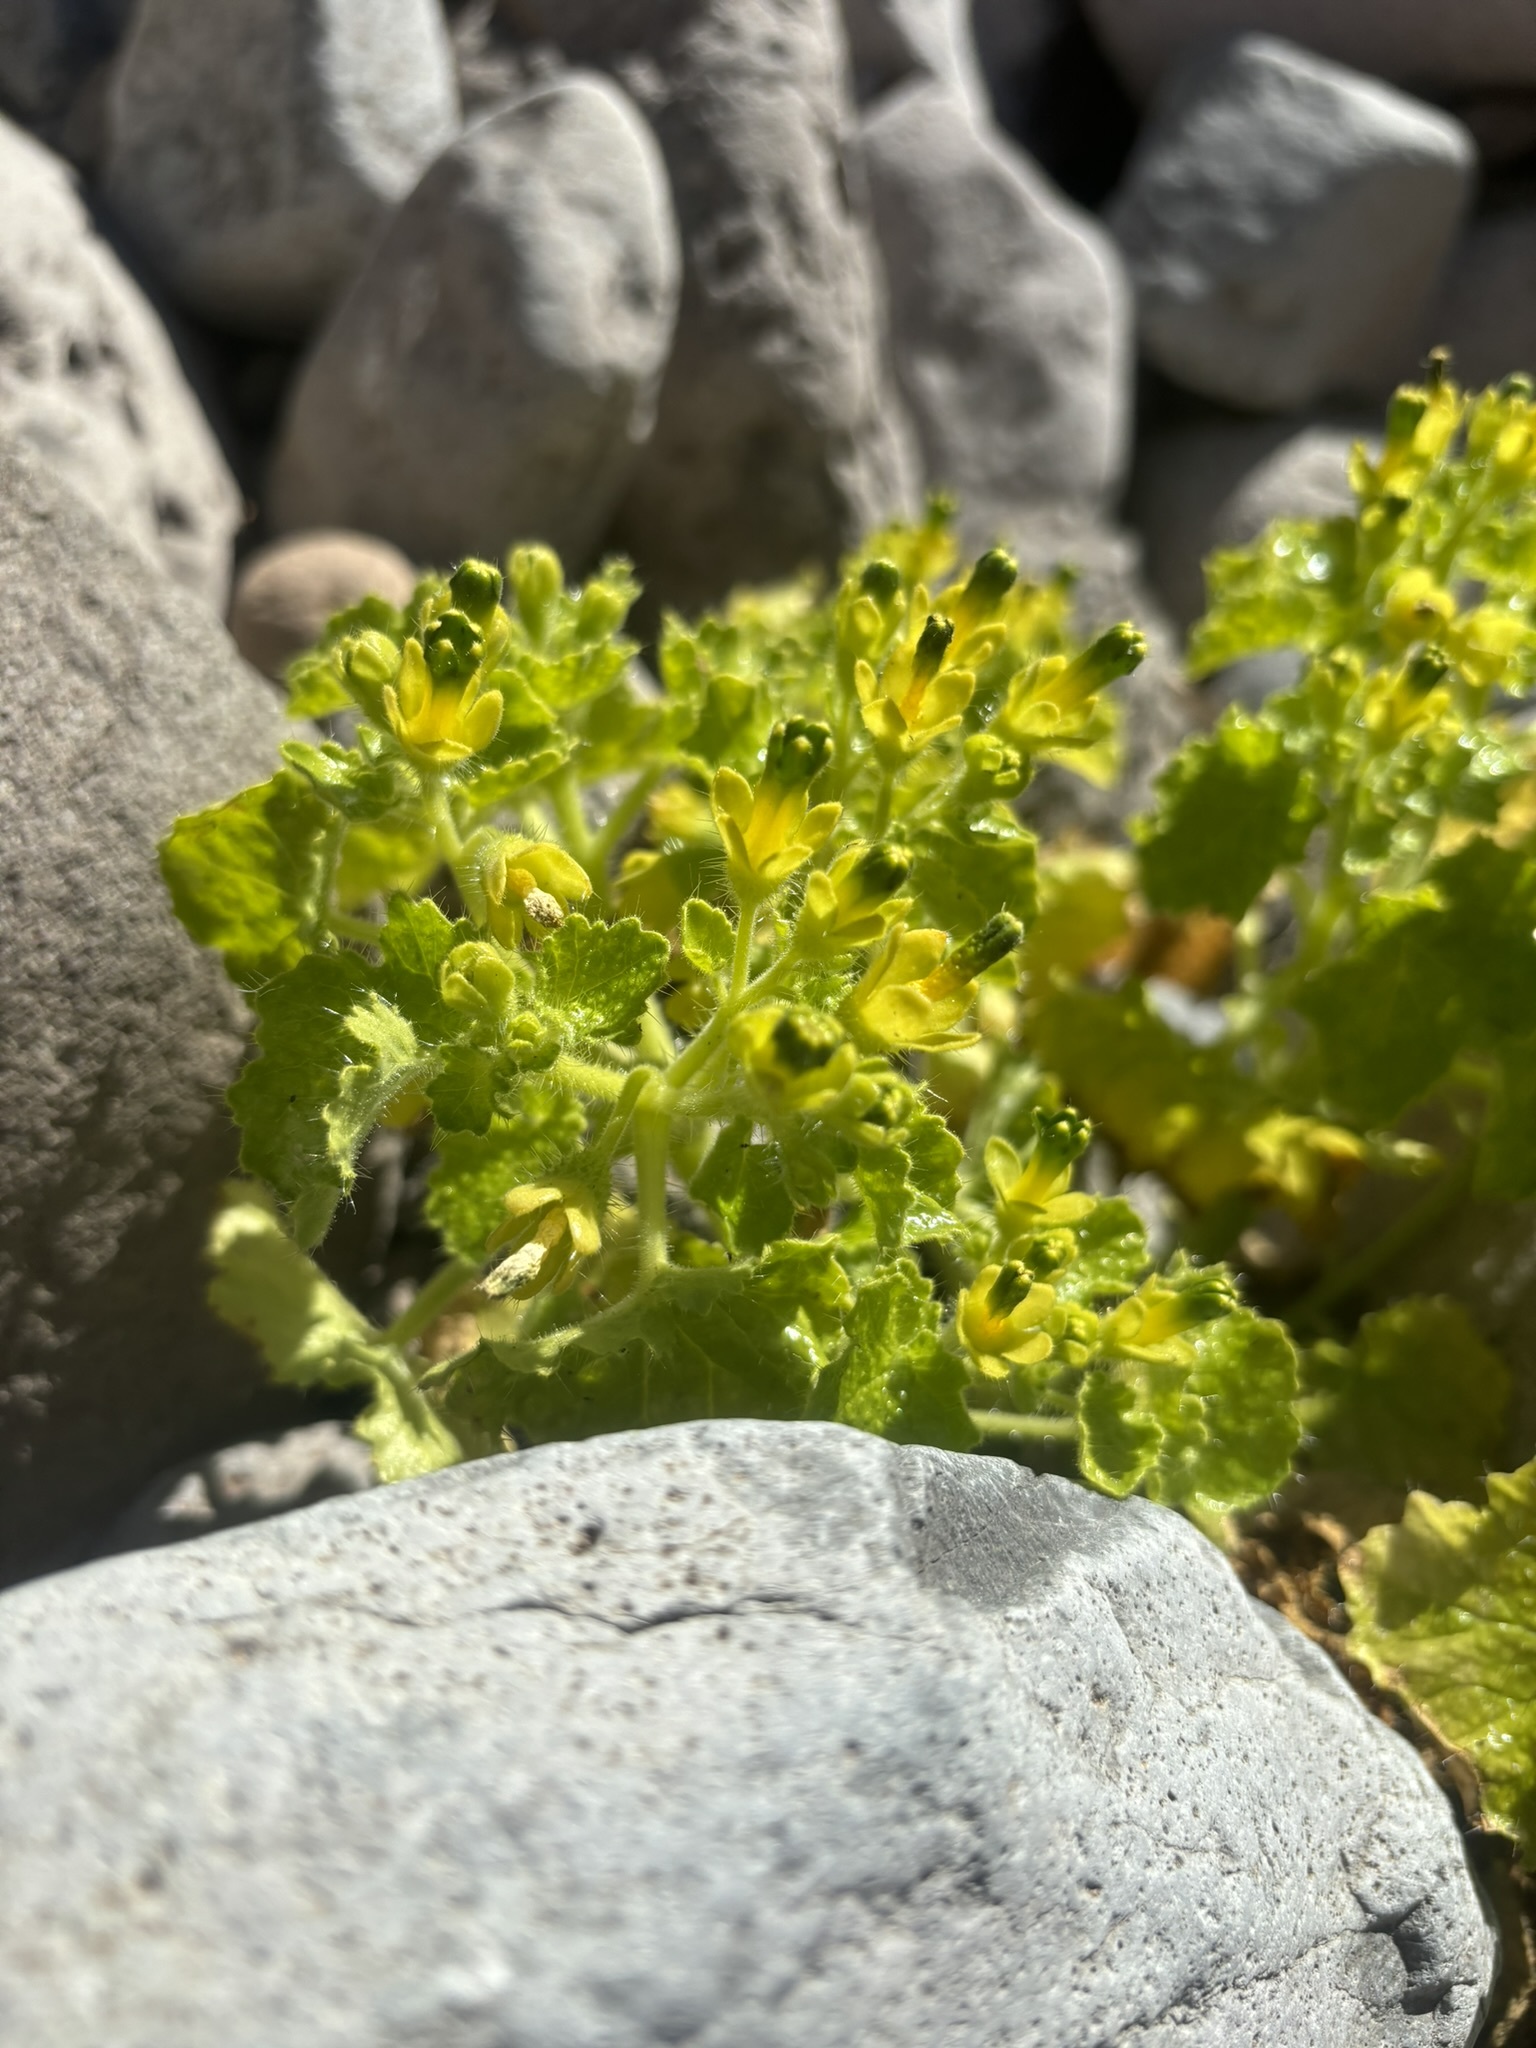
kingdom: Plantae
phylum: Tracheophyta
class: Magnoliopsida
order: Cornales
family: Loasaceae
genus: Eucnide
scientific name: Eucnide rupestris
